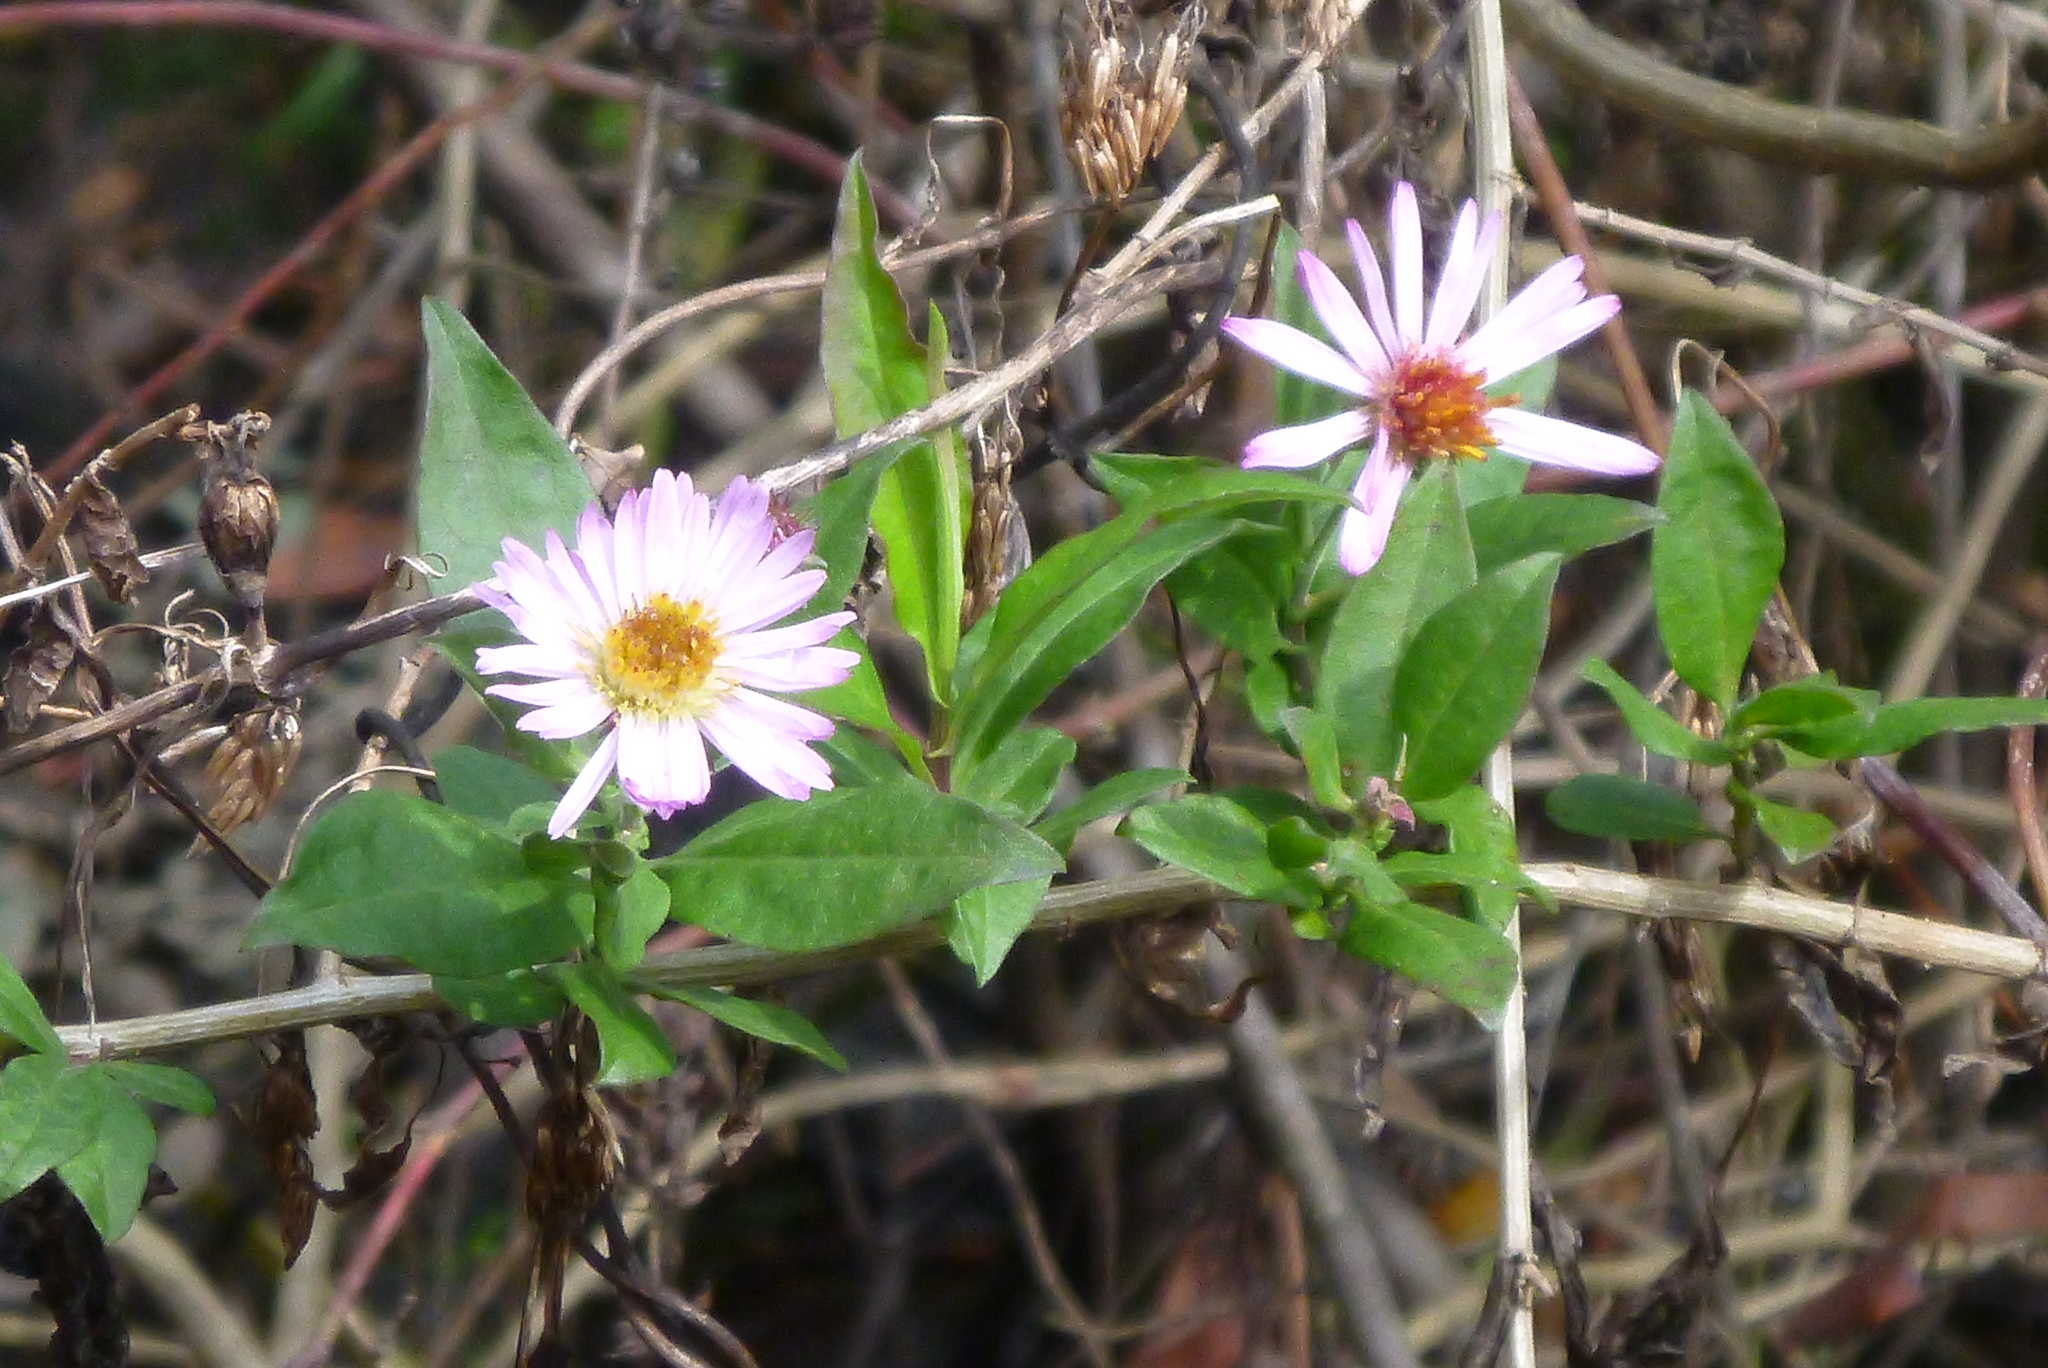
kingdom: Plantae
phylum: Tracheophyta
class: Magnoliopsida
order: Asterales
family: Asteraceae
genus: Ampelaster
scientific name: Ampelaster carolinianus
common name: Climbing aster
